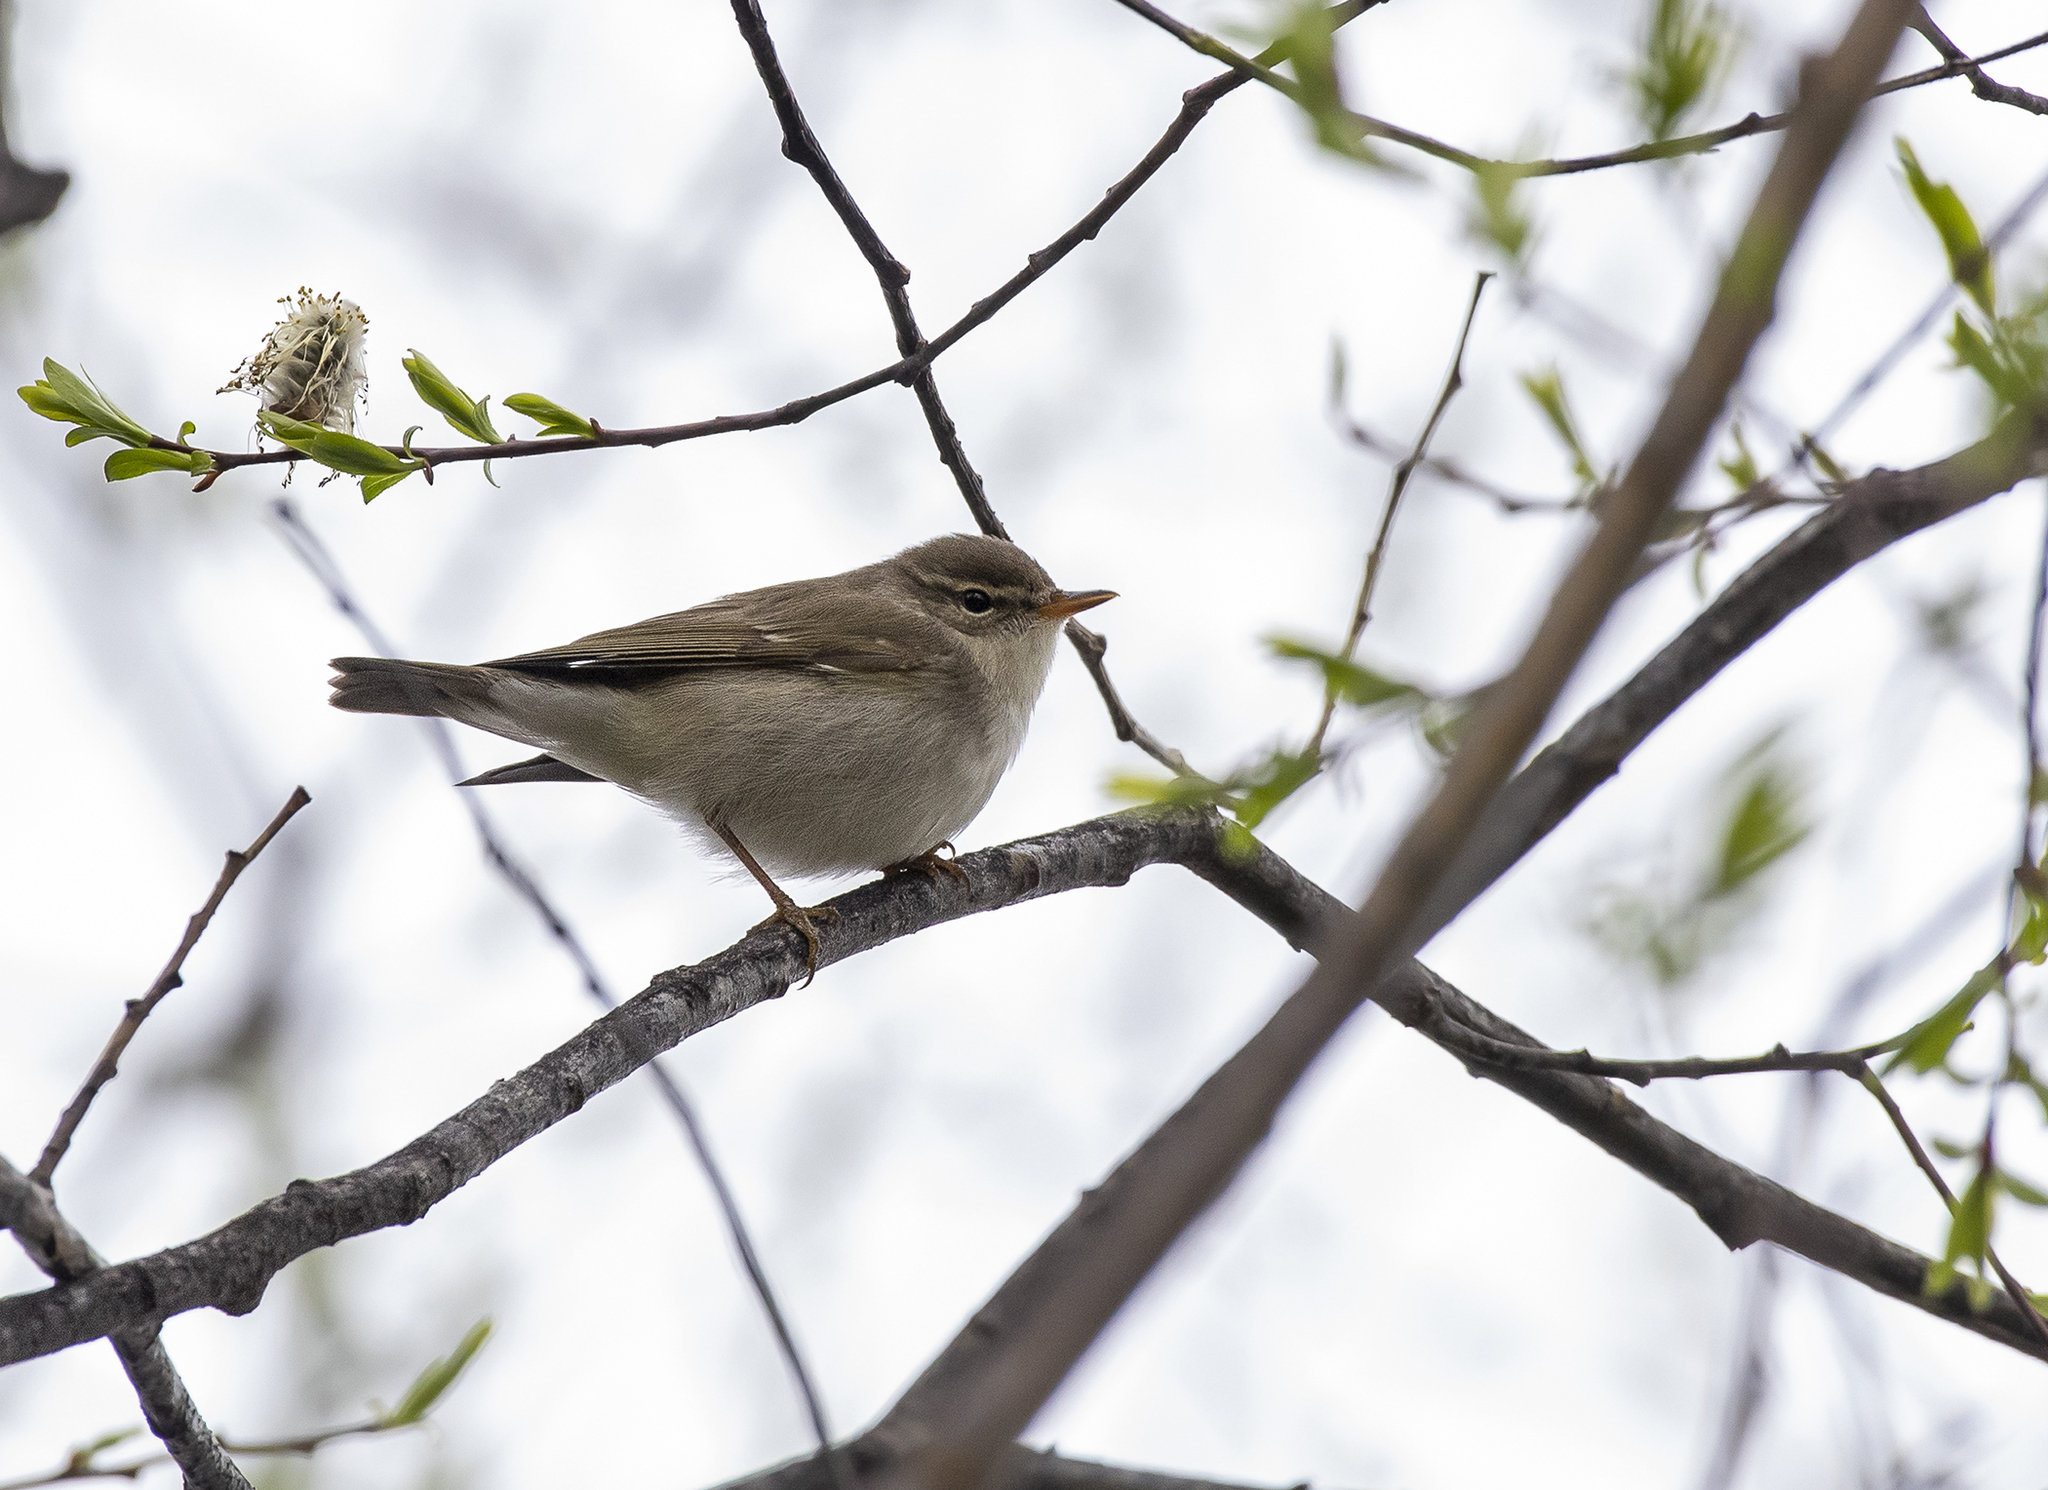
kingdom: Animalia
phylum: Chordata
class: Aves
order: Passeriformes
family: Phylloscopidae
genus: Phylloscopus
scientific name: Phylloscopus borealis
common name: Arctic warbler
